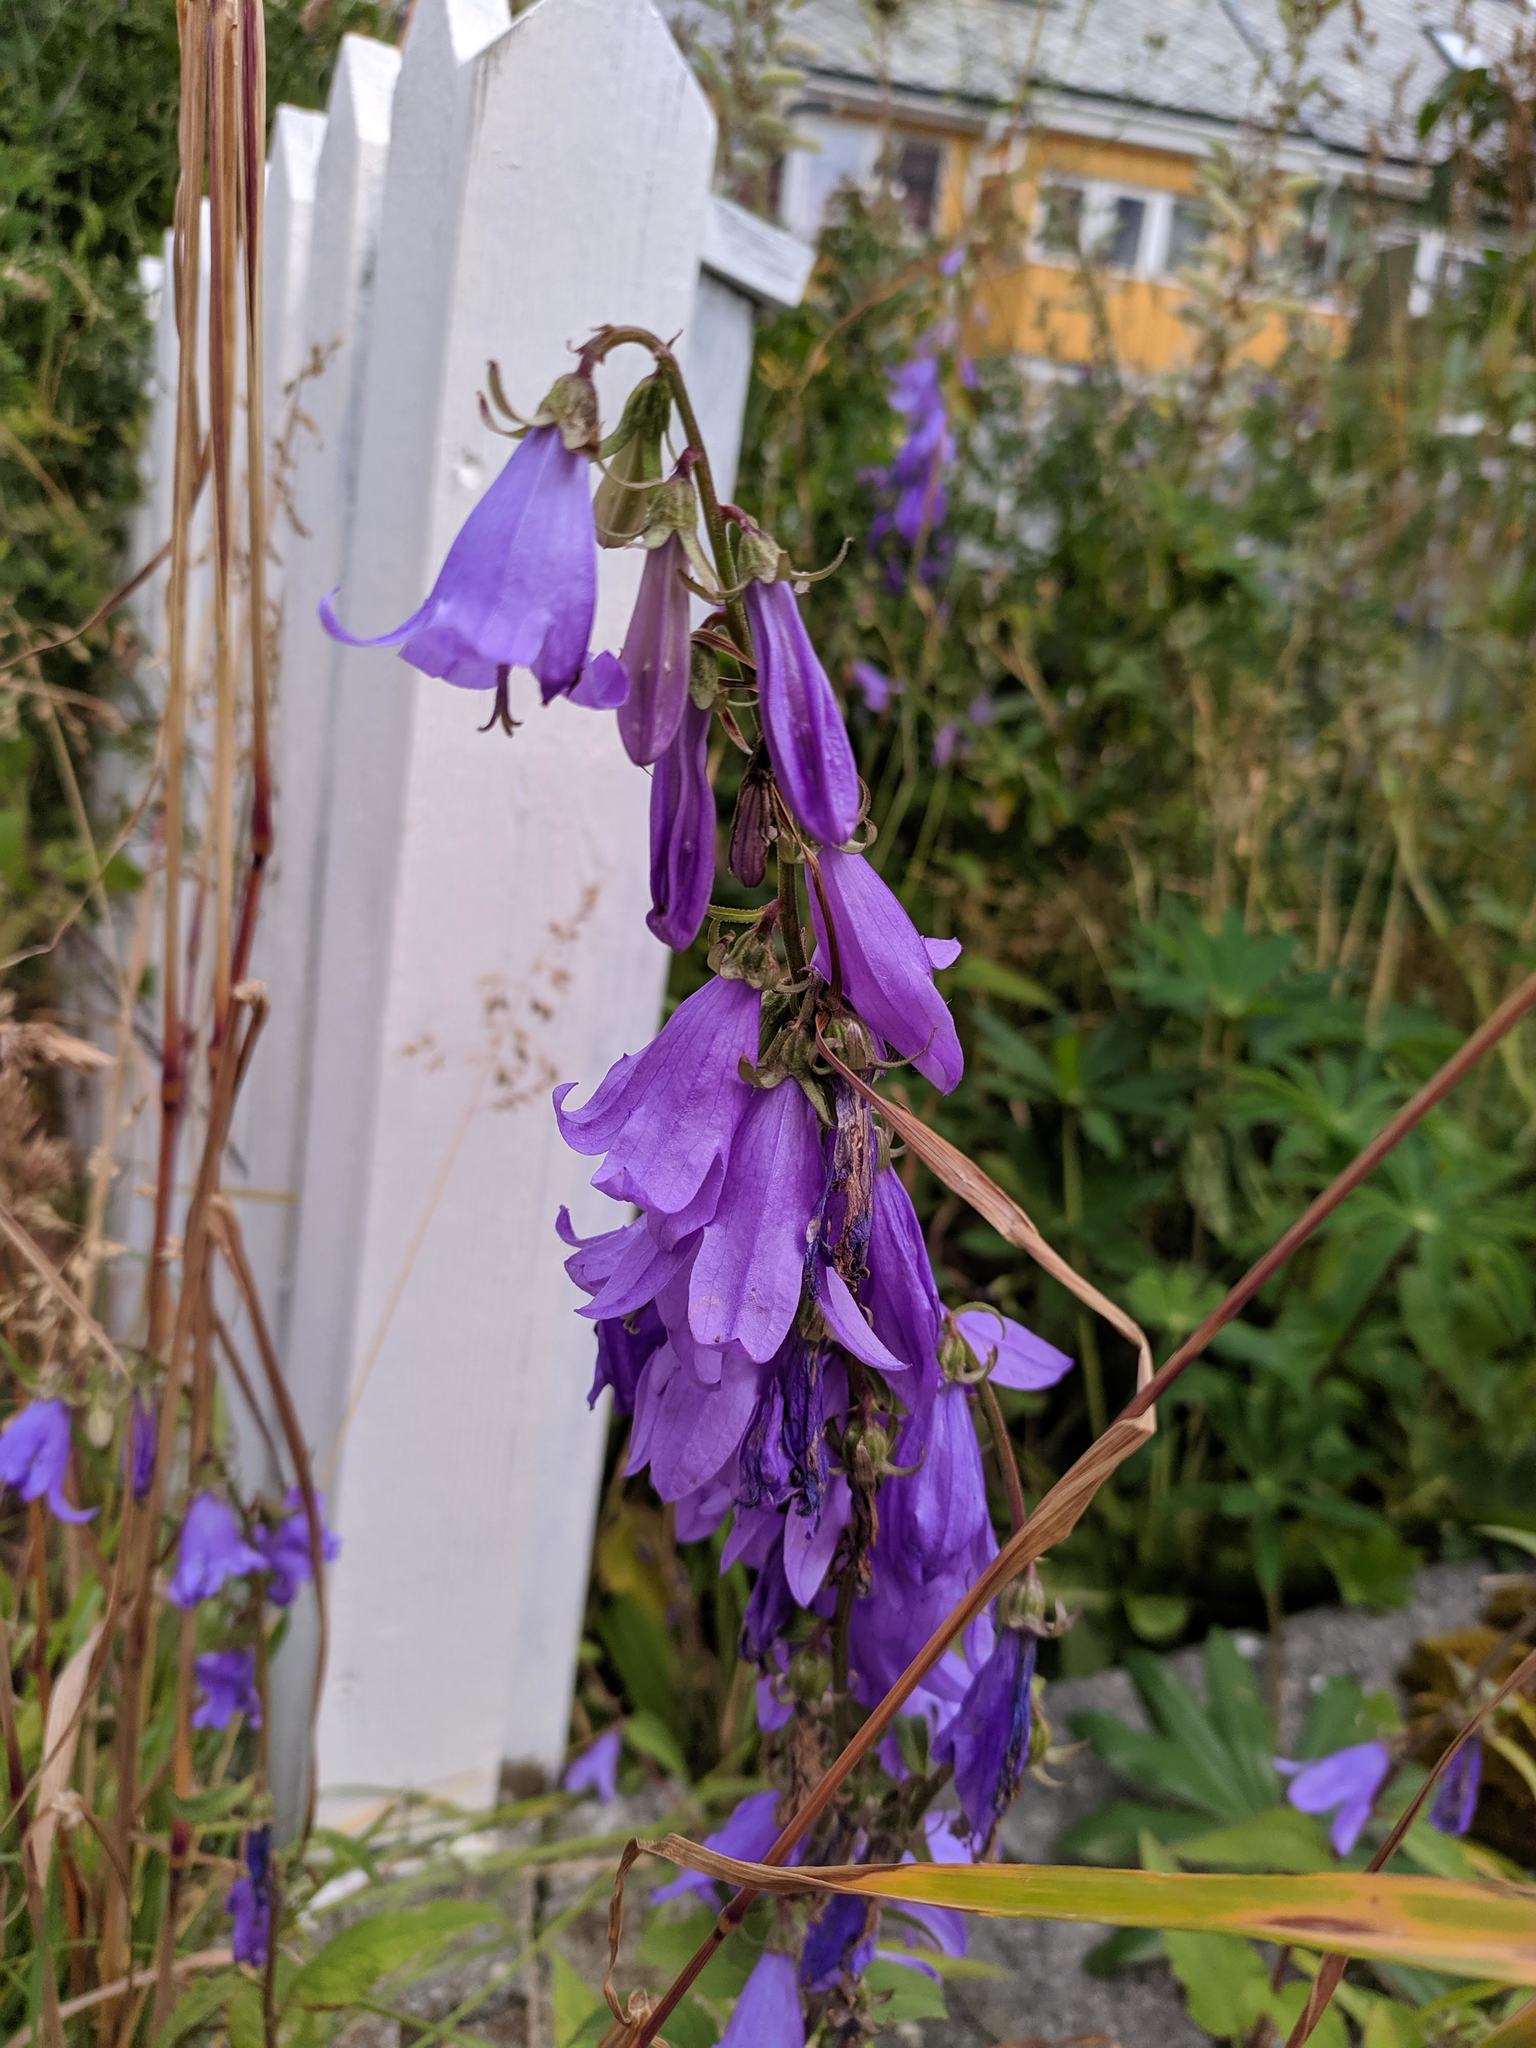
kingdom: Plantae
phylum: Tracheophyta
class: Magnoliopsida
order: Asterales
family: Campanulaceae
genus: Campanula
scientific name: Campanula rapunculoides
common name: Creeping bellflower
